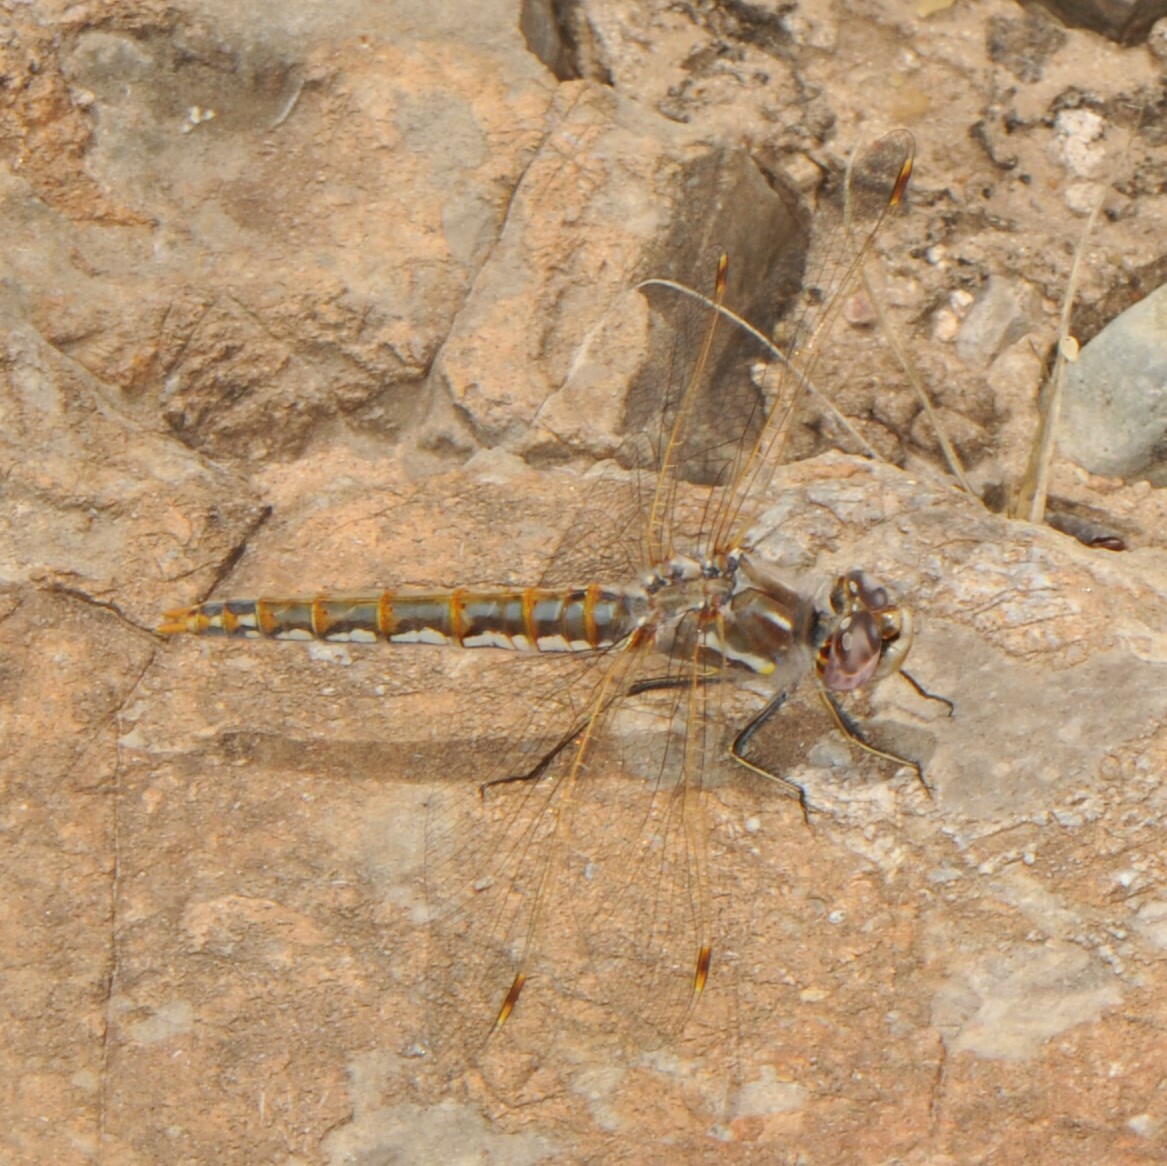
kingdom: Animalia
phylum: Arthropoda
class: Insecta
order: Odonata
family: Libellulidae
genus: Sympetrum
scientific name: Sympetrum corruptum
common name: Variegated meadowhawk
